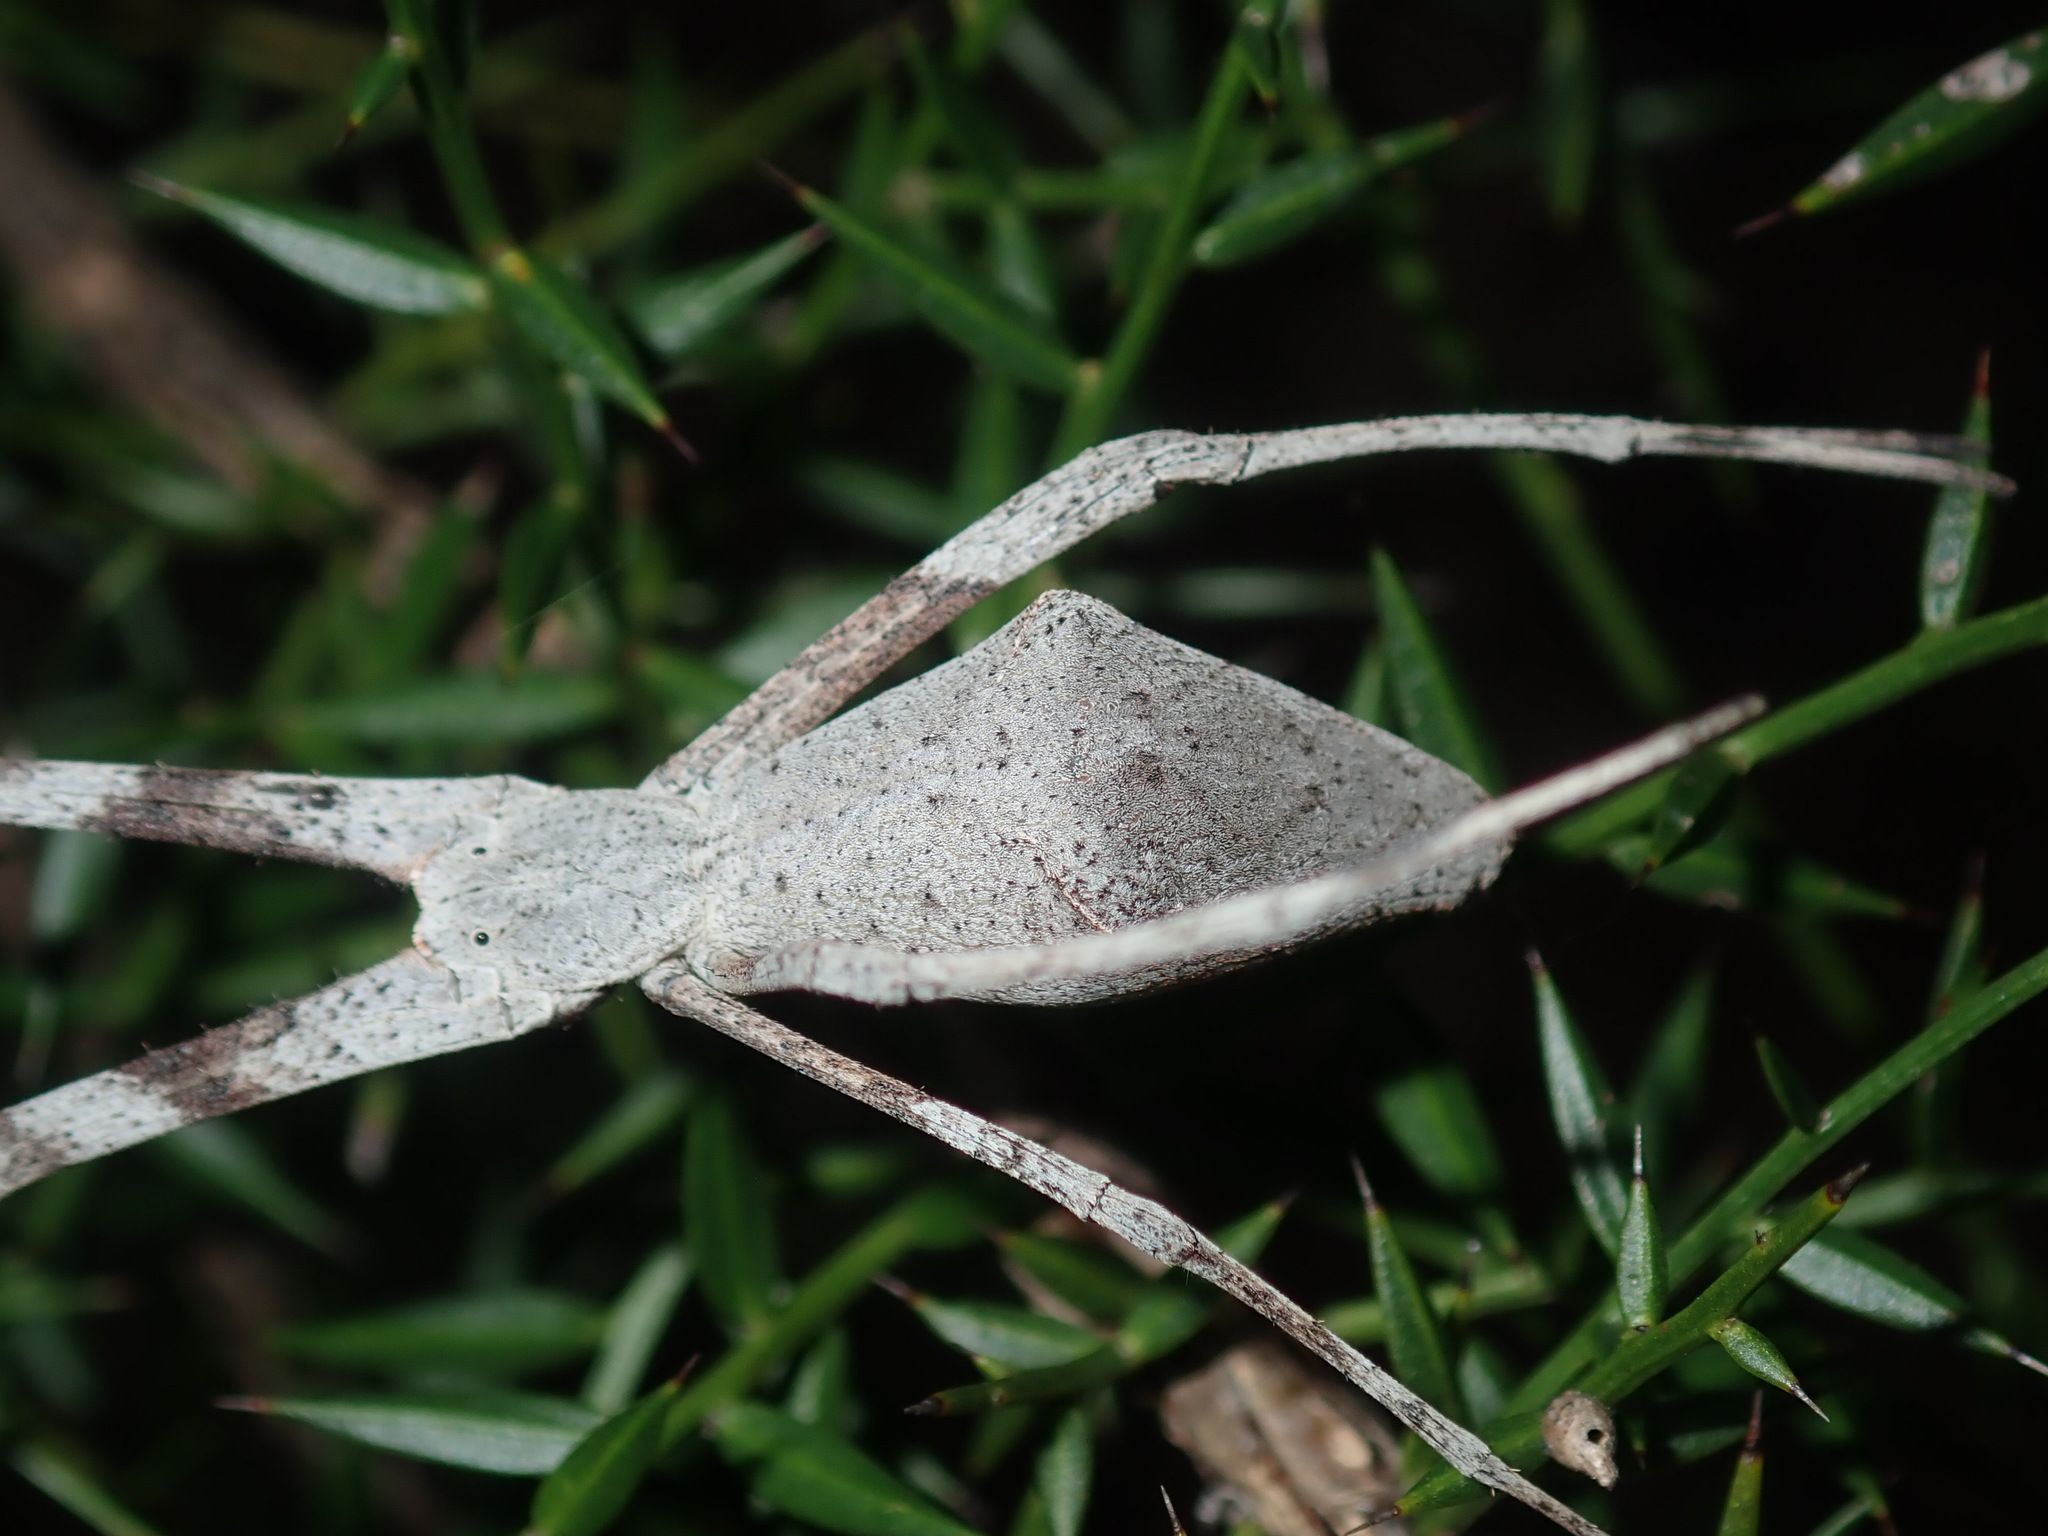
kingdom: Animalia
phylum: Arthropoda
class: Arachnida
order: Araneae
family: Deinopidae
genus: Deinopis
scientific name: Deinopis subrufa
